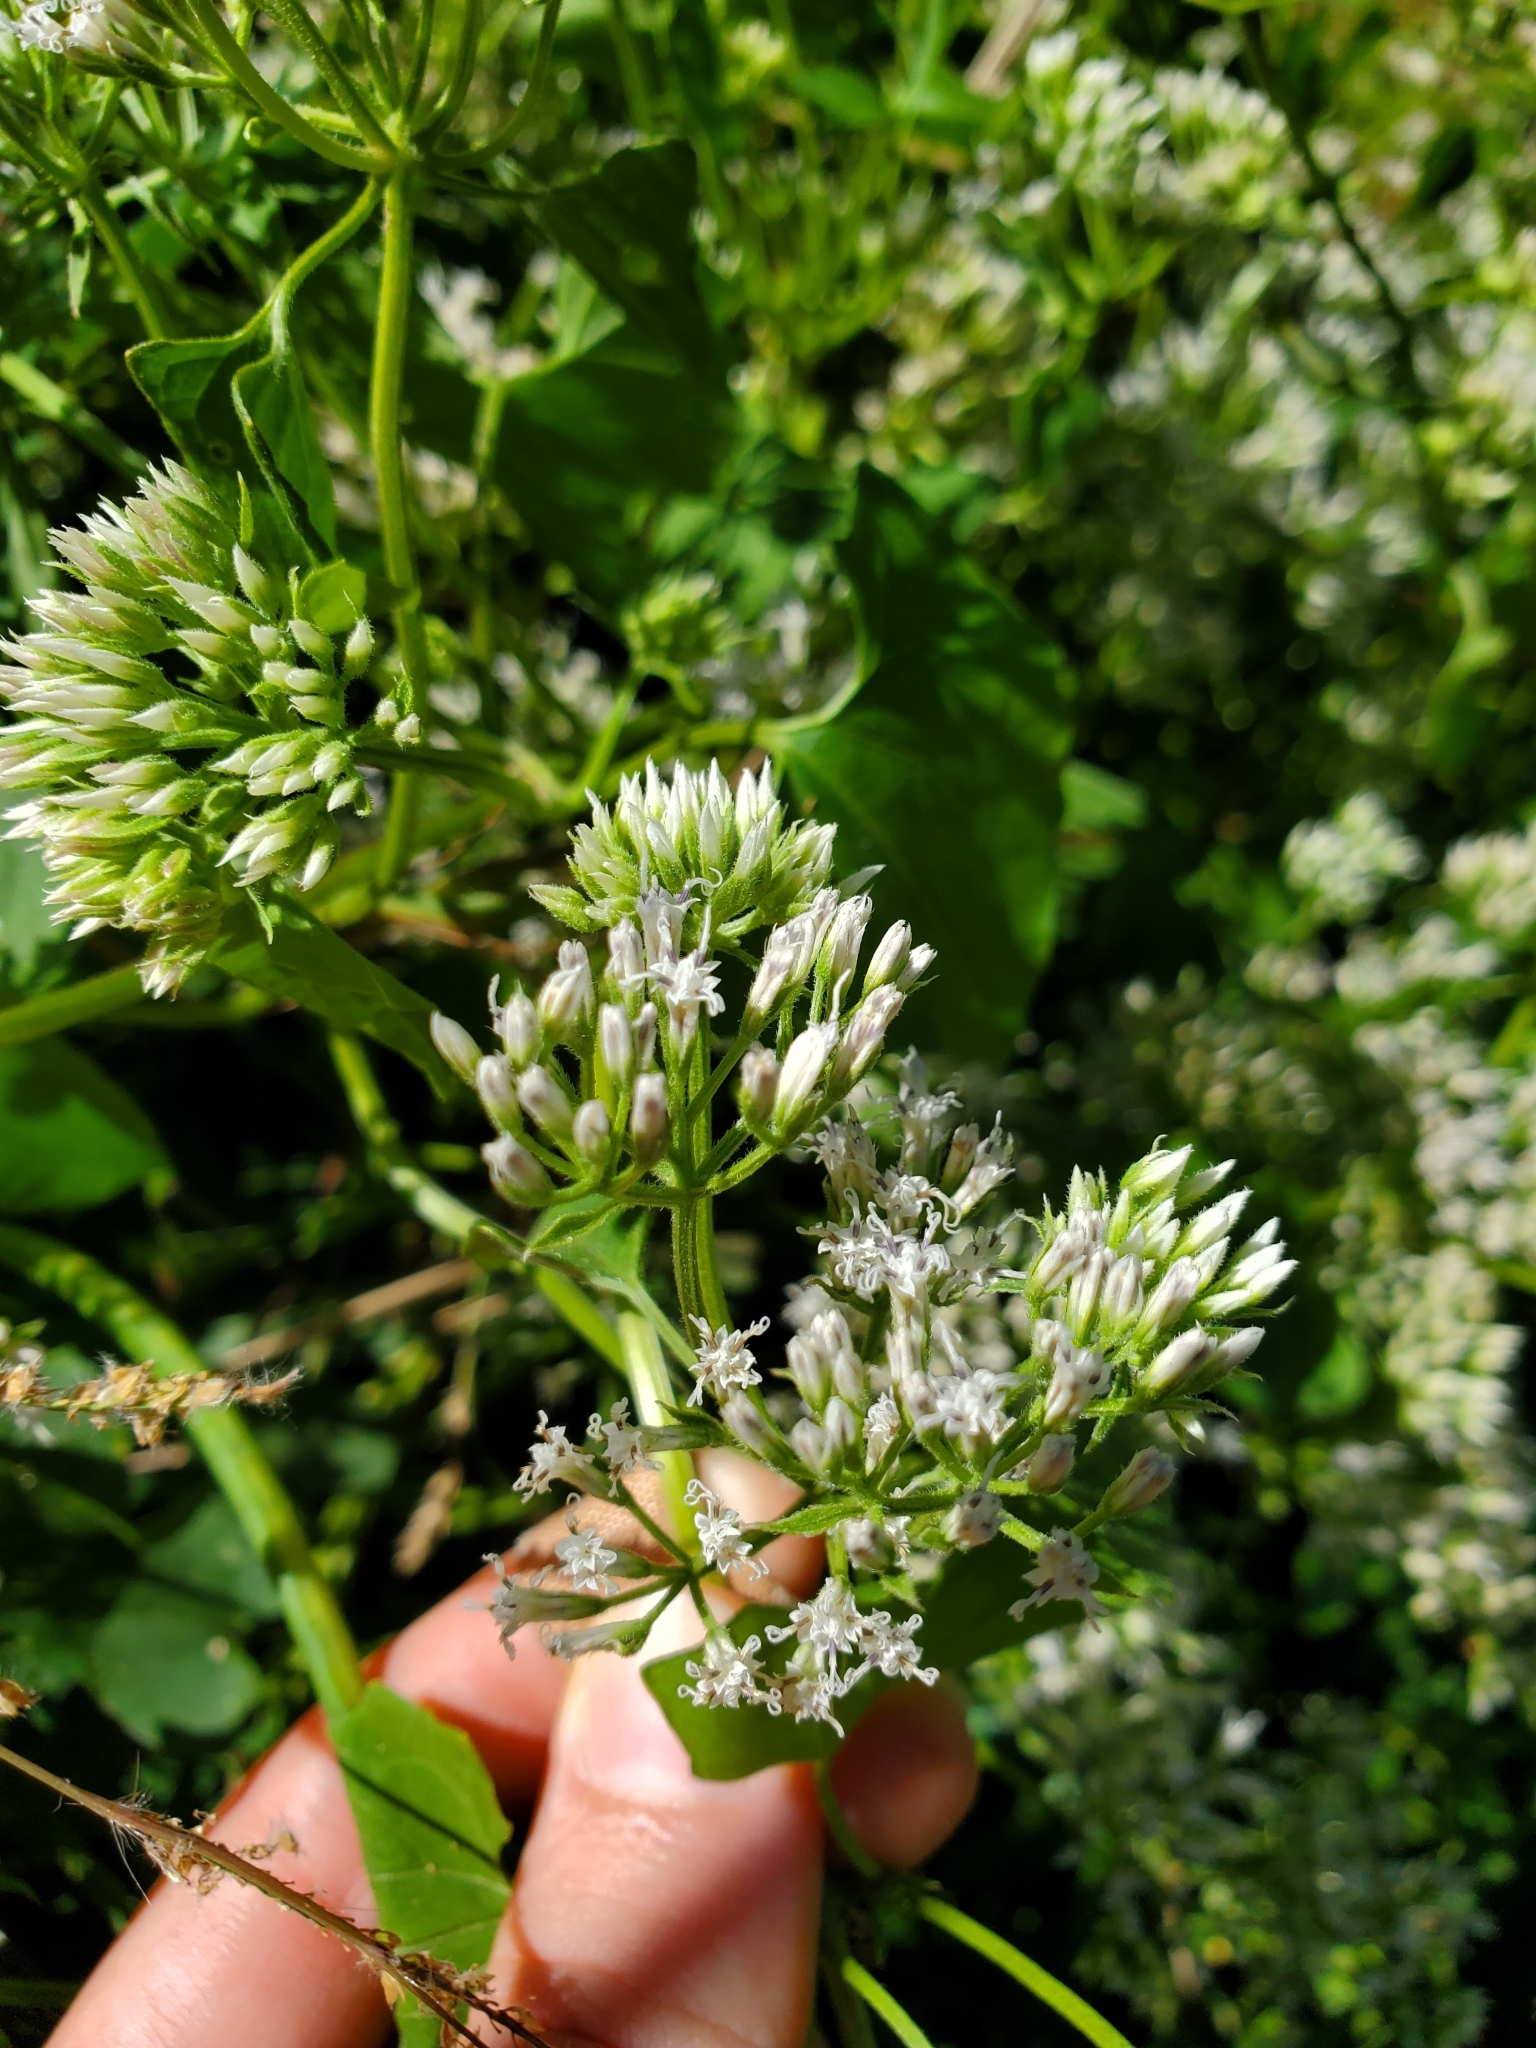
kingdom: Plantae
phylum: Tracheophyta
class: Magnoliopsida
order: Asterales
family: Asteraceae
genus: Mikania
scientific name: Mikania scandens
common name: Climbing hempvine
